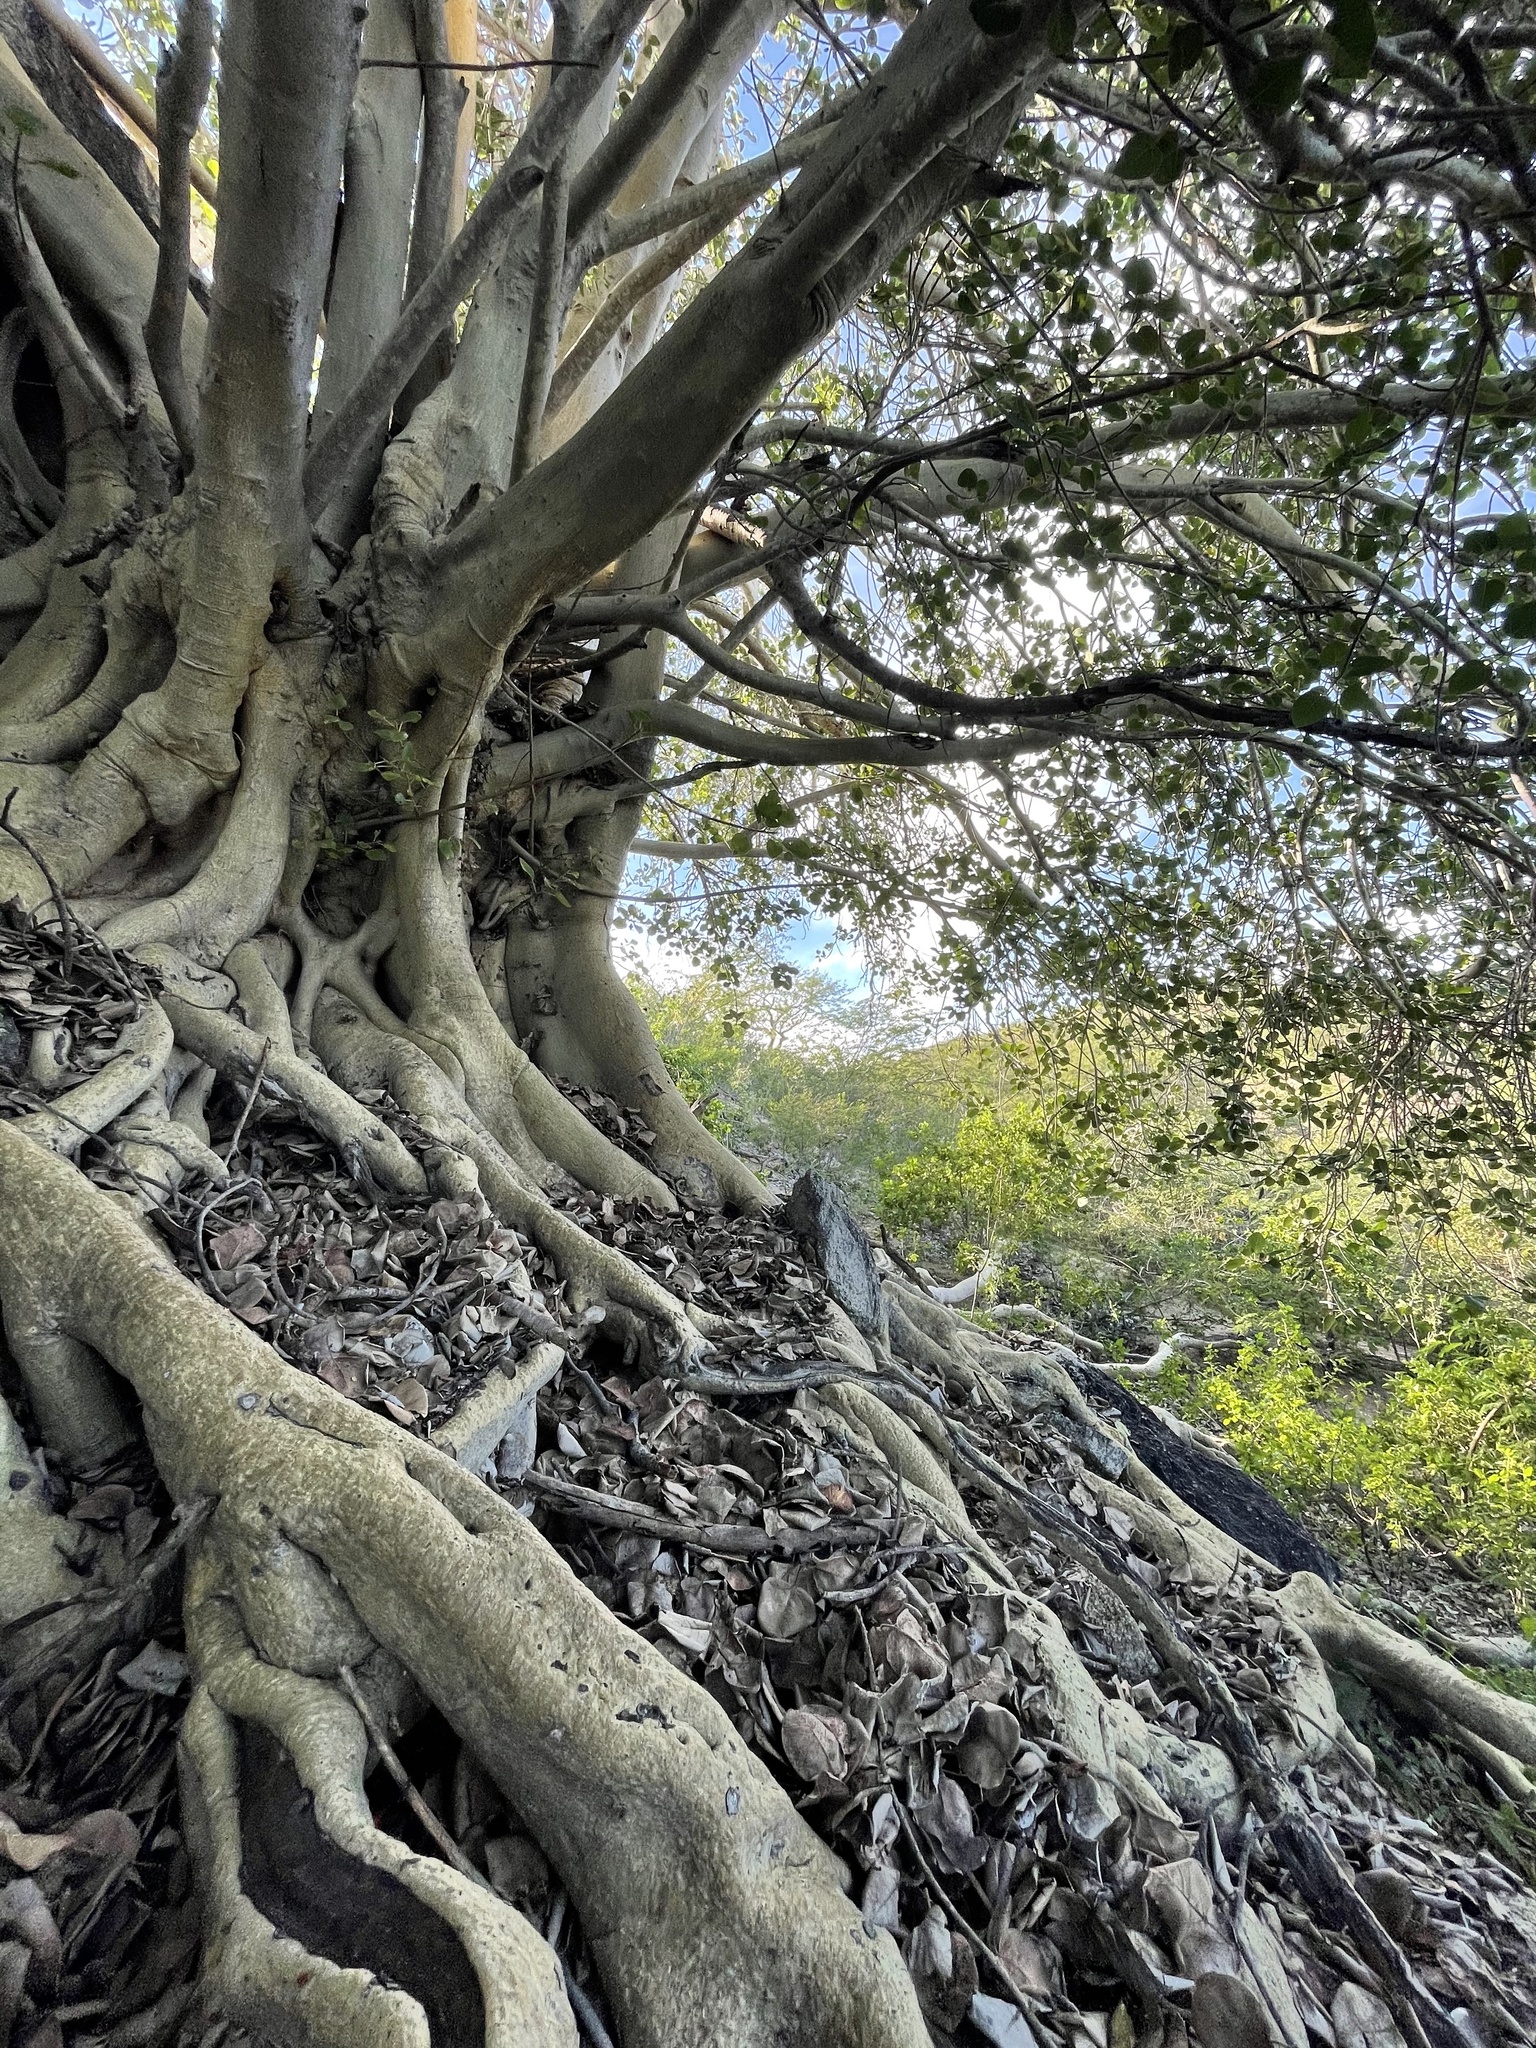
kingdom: Plantae
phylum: Tracheophyta
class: Magnoliopsida
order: Rosales
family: Moraceae
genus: Ficus
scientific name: Ficus petiolaris
